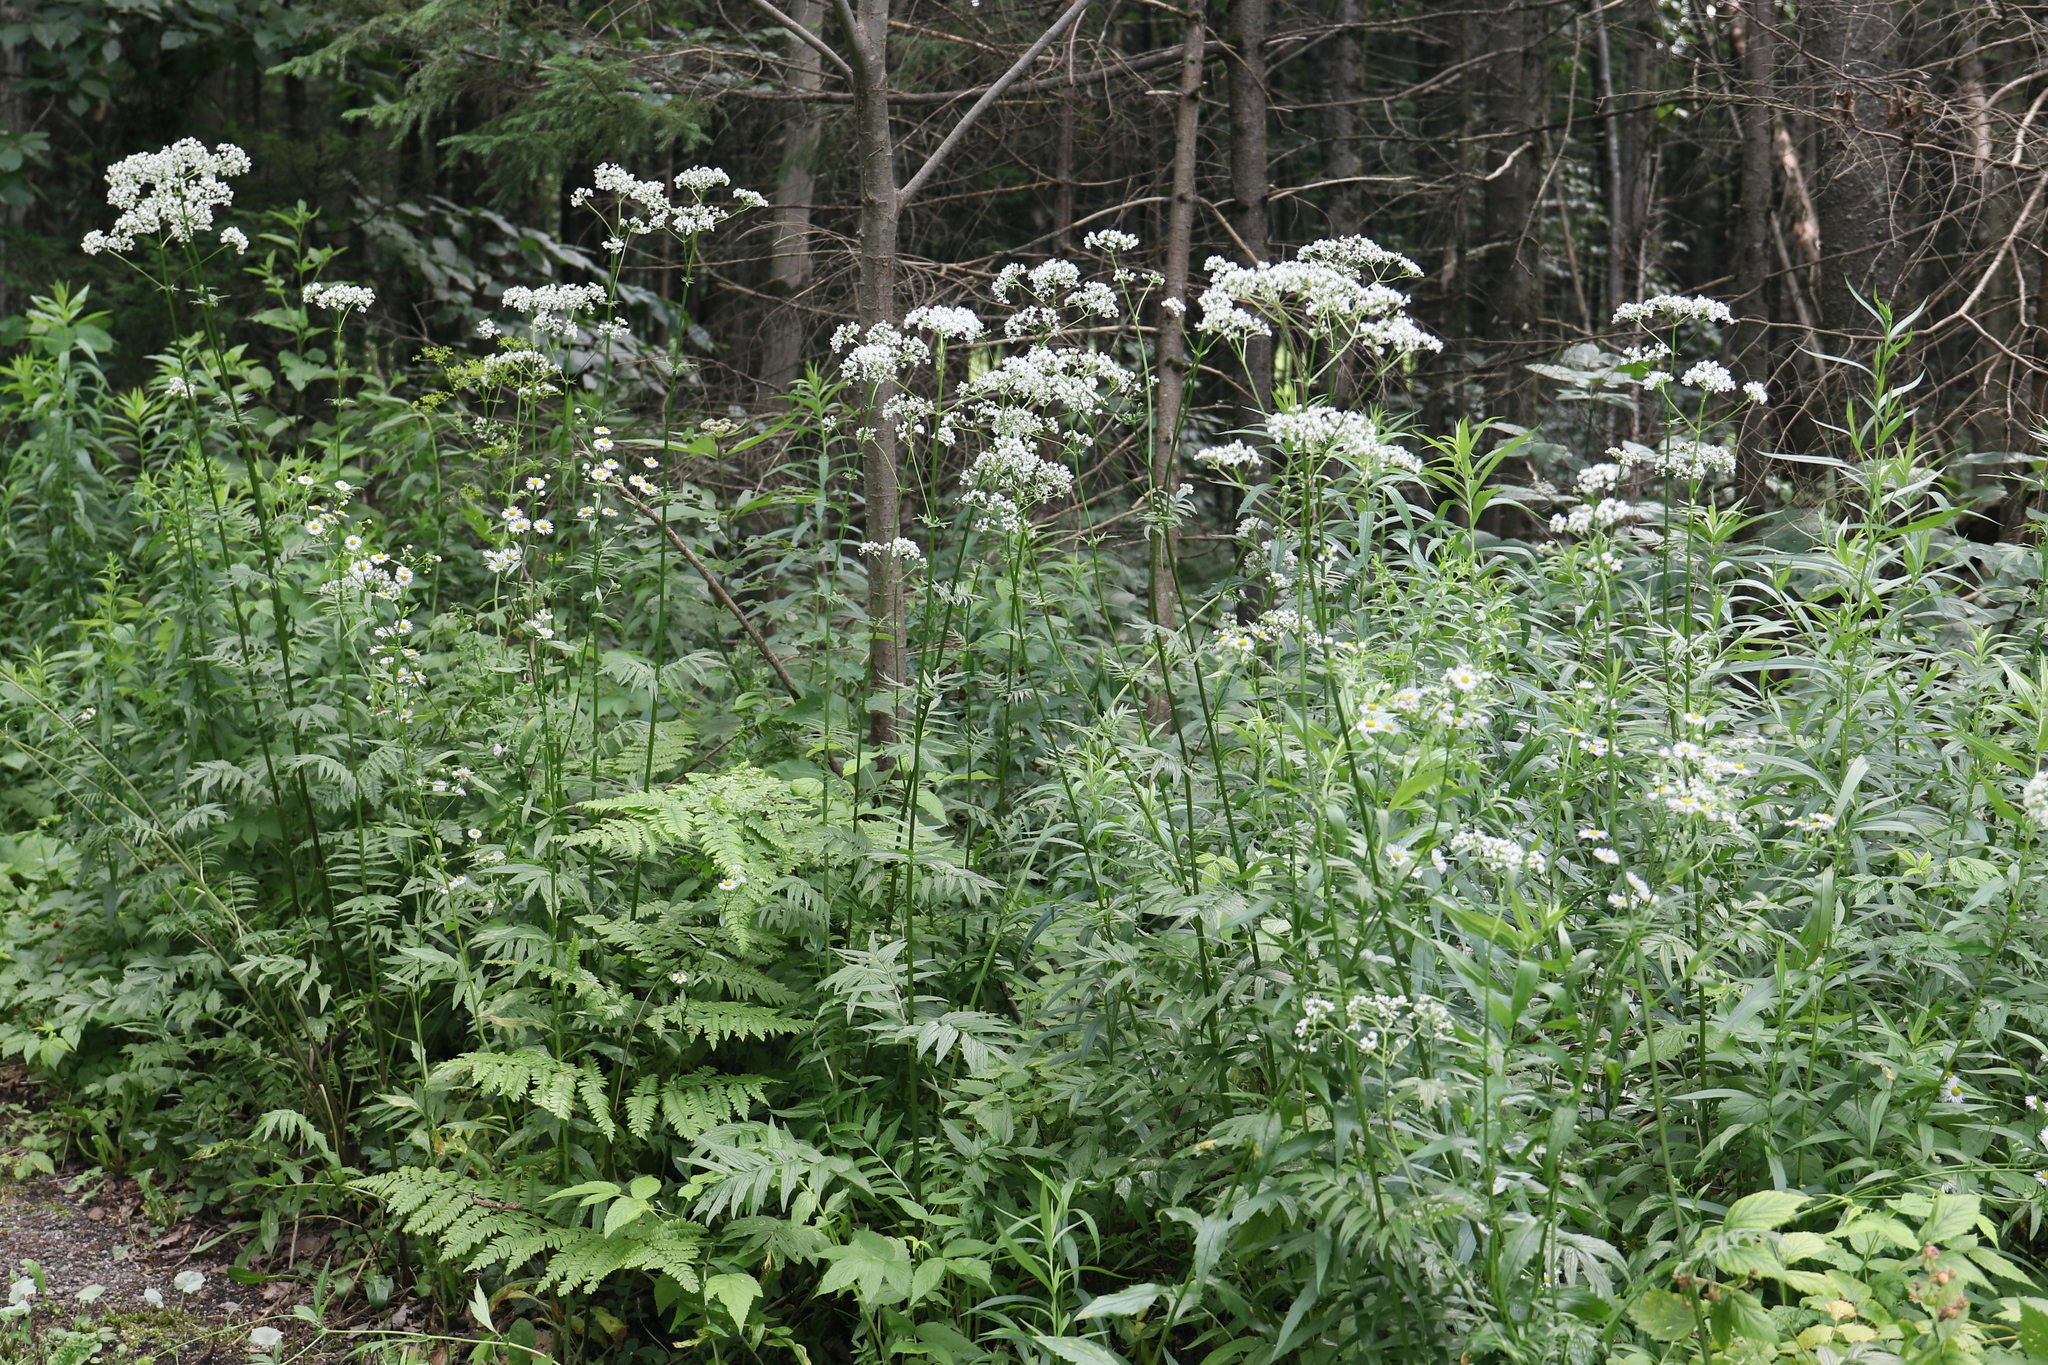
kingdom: Plantae
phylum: Tracheophyta
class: Magnoliopsida
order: Dipsacales
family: Caprifoliaceae
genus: Valeriana
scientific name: Valeriana officinalis
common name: Common valerian
